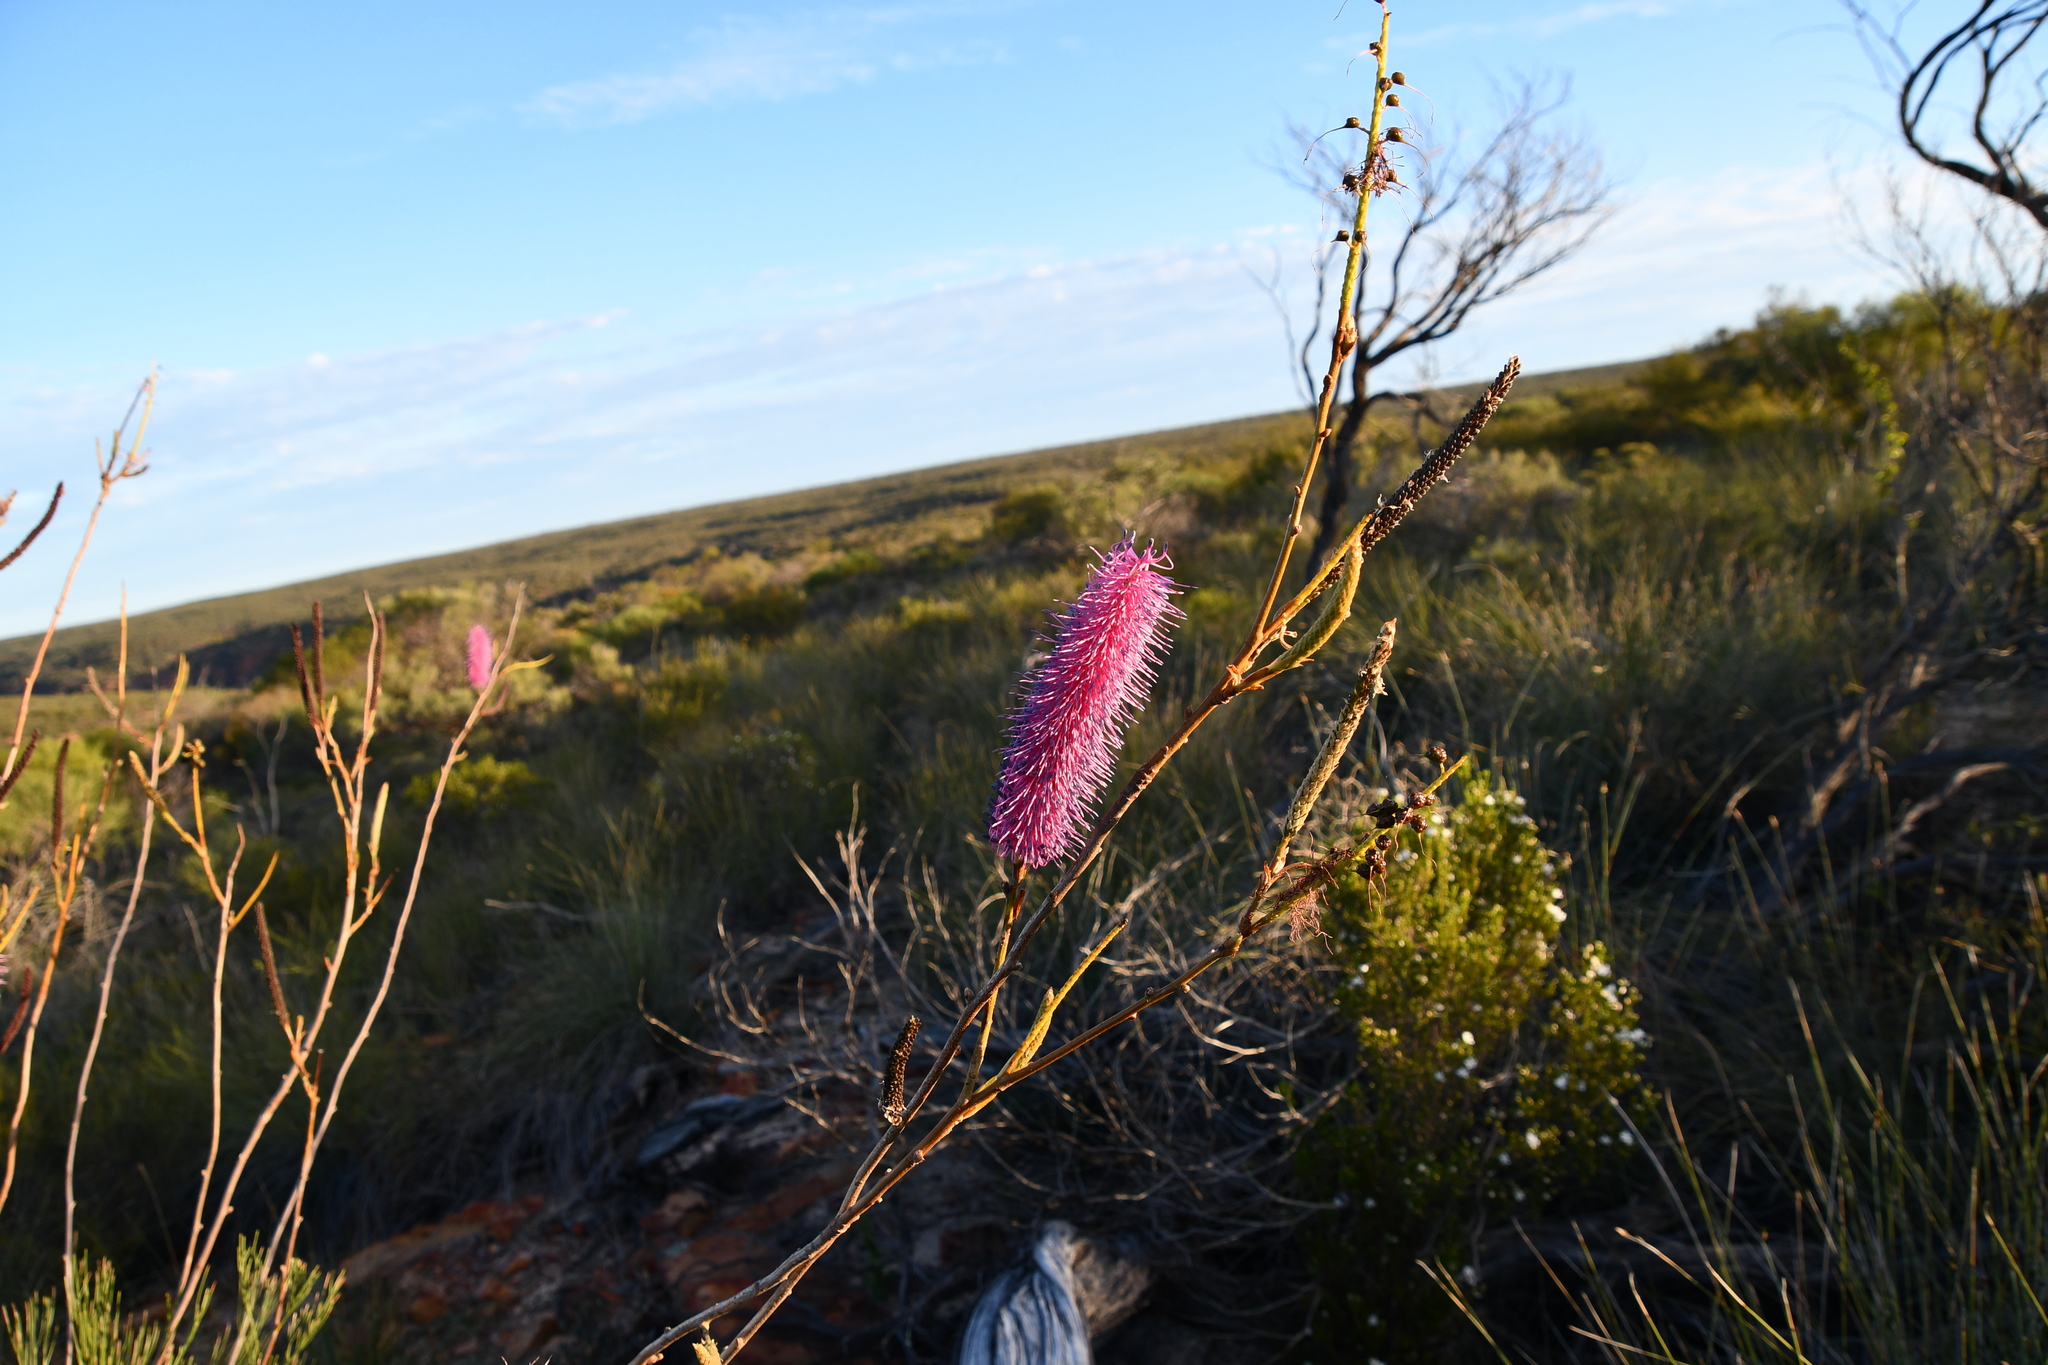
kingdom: Plantae
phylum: Tracheophyta
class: Magnoliopsida
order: Proteales
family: Proteaceae
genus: Grevillea
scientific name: Grevillea petrophiloides
